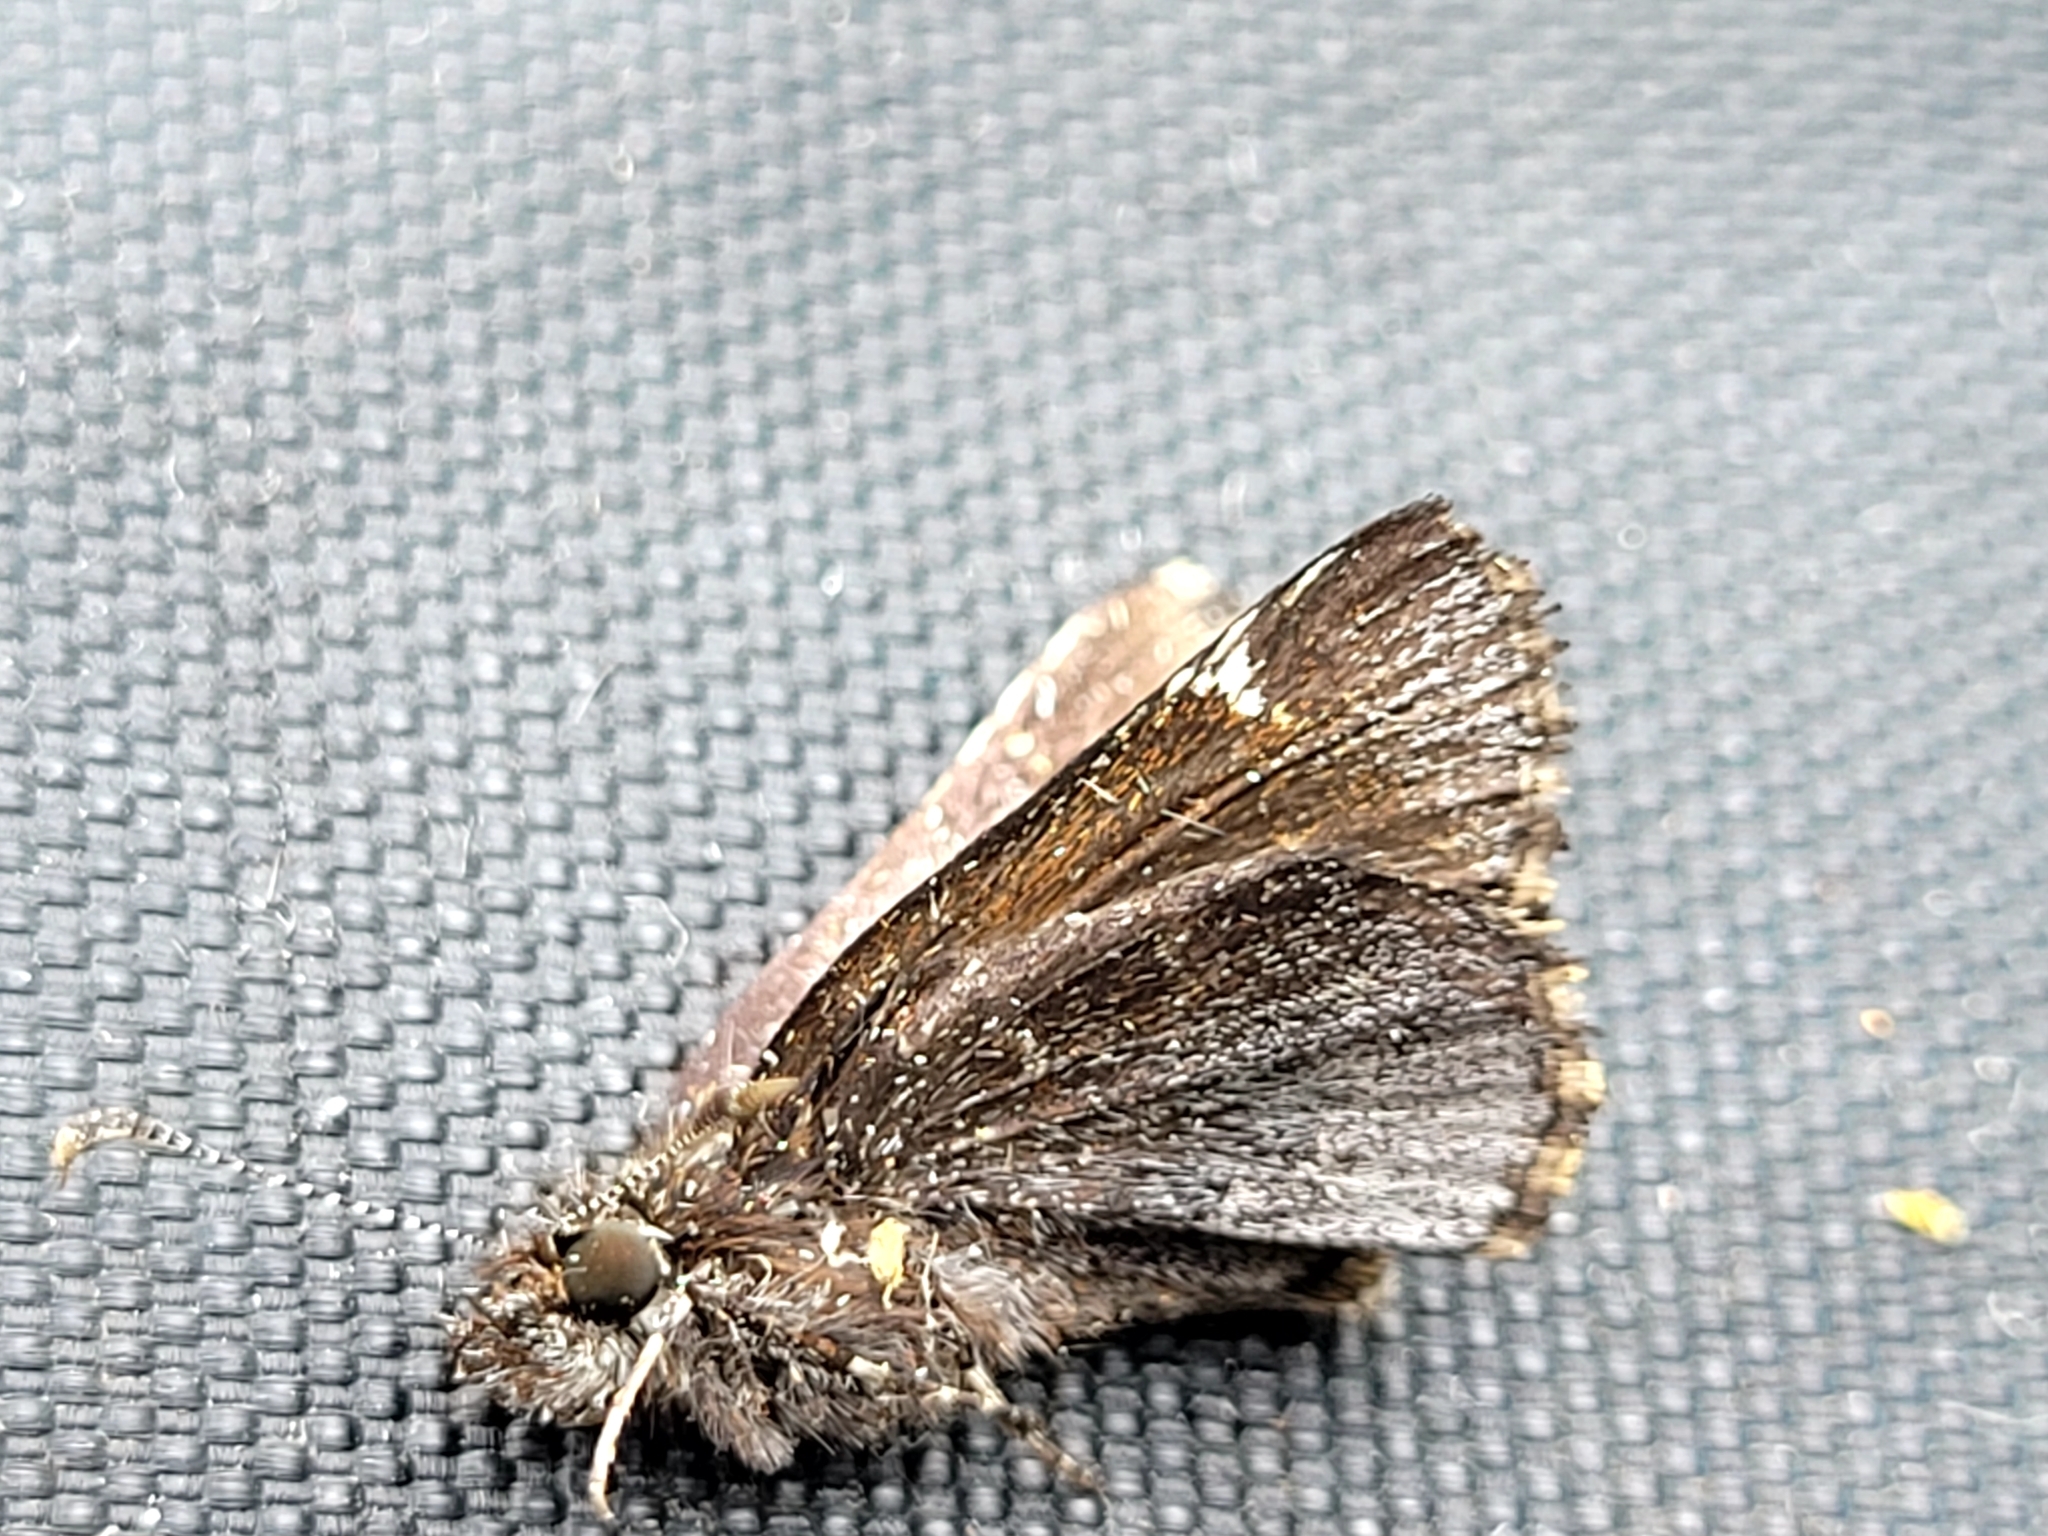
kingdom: Animalia
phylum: Arthropoda
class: Insecta
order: Lepidoptera
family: Hesperiidae
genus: Mastor
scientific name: Mastor vialis
